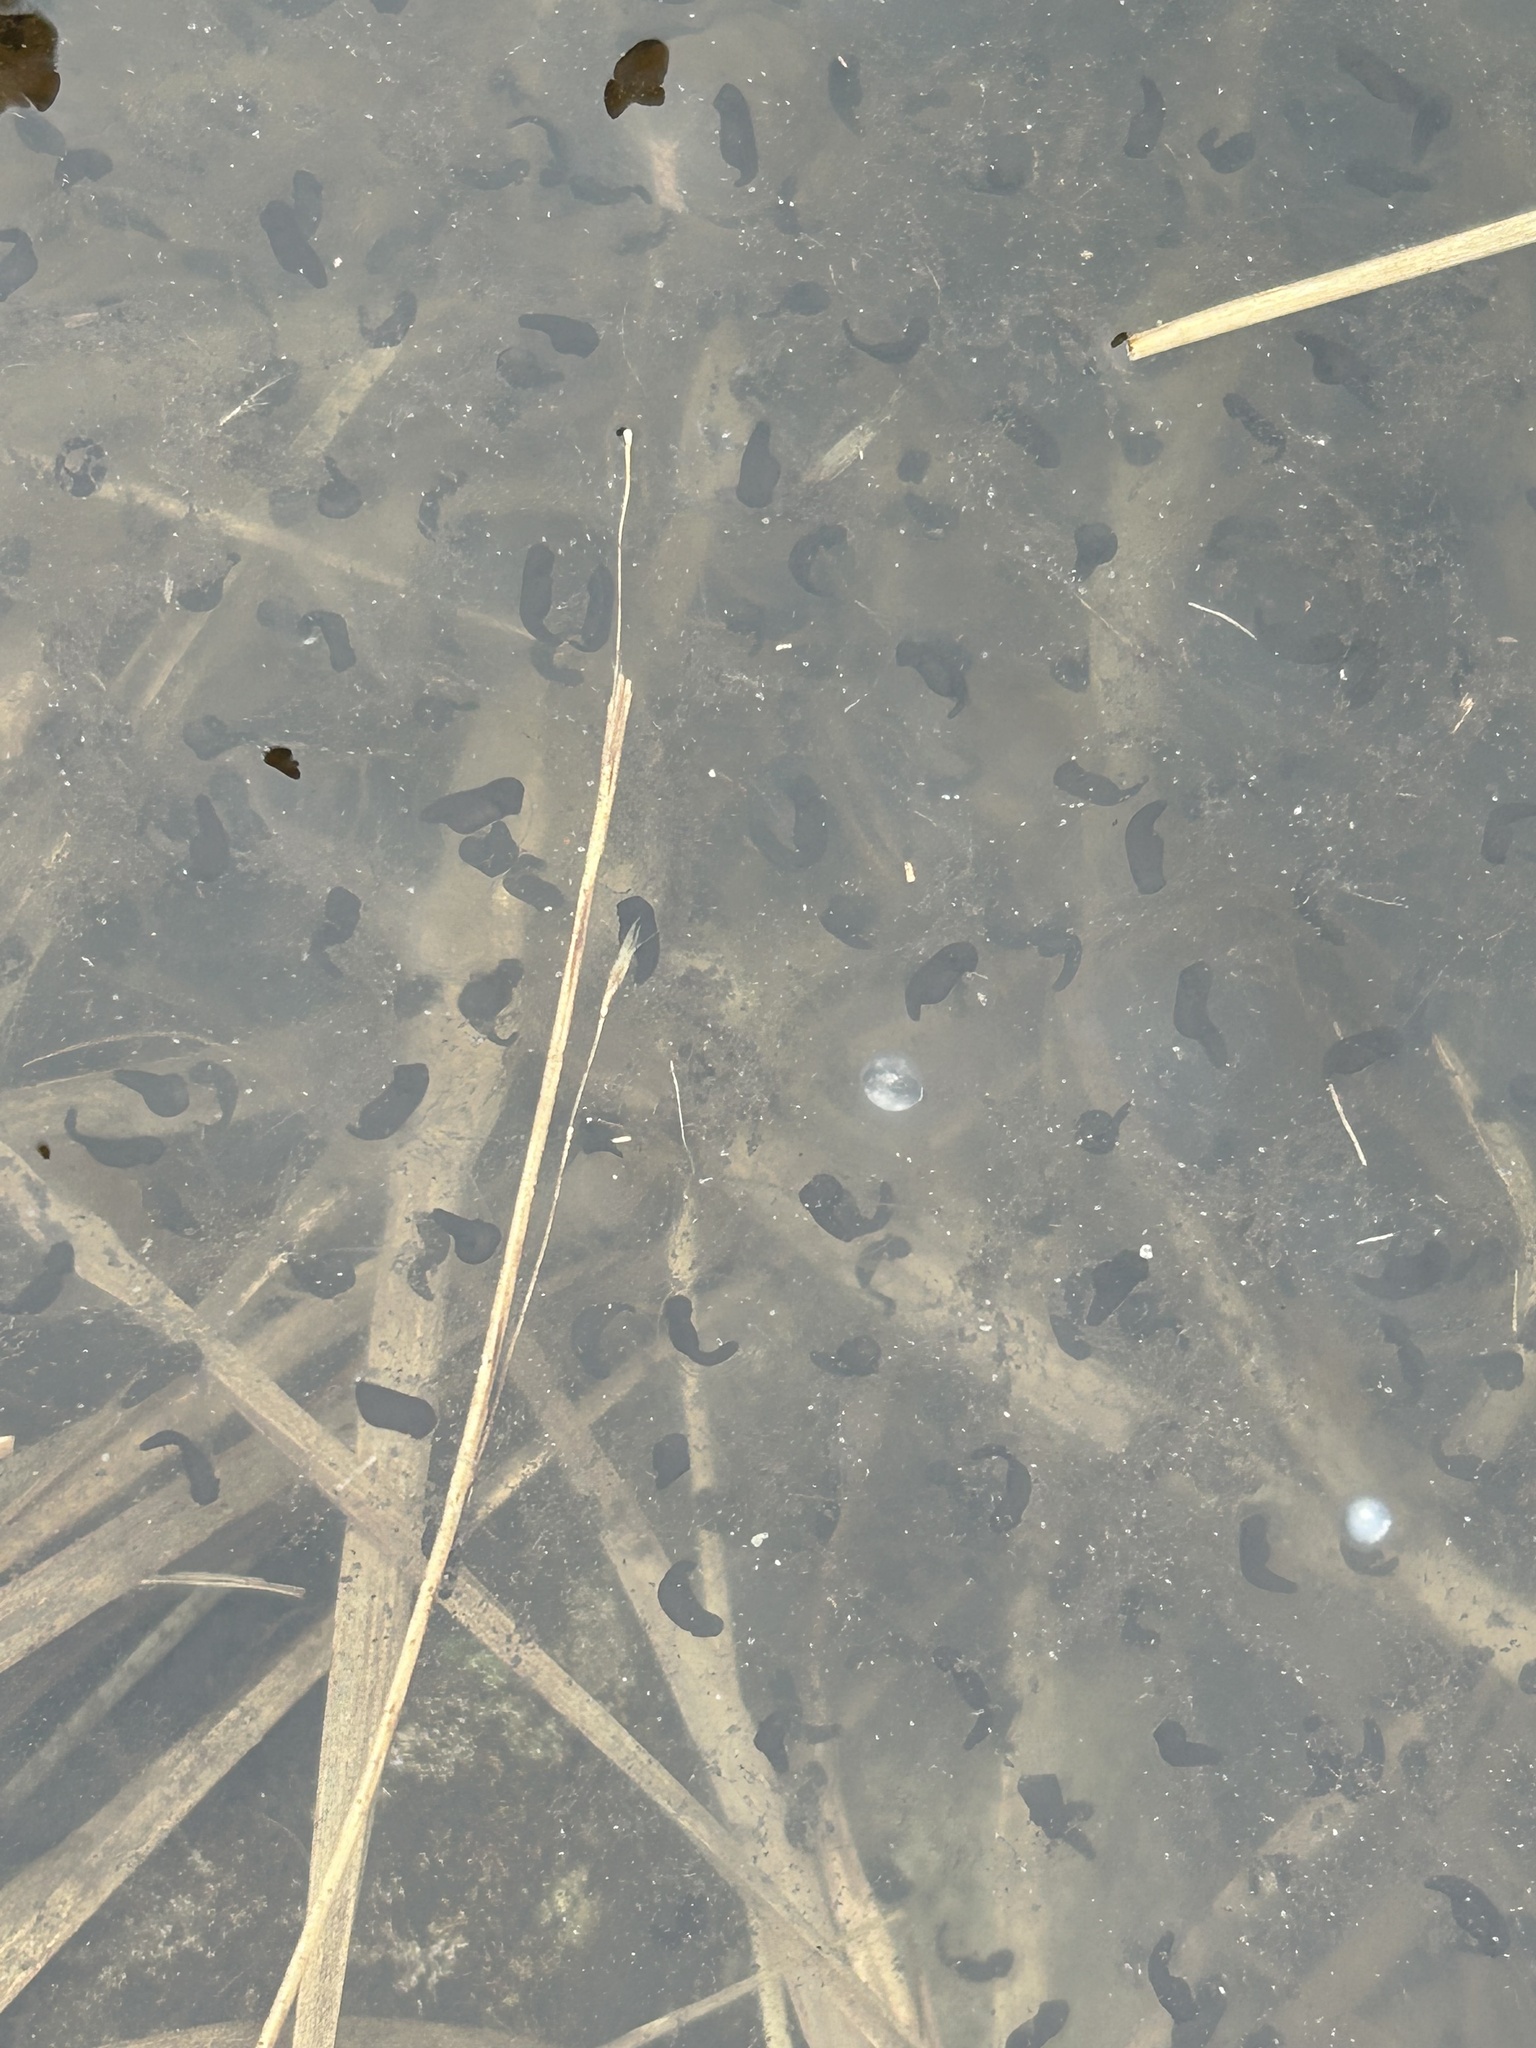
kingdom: Animalia
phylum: Chordata
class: Amphibia
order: Anura
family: Ranidae
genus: Rana
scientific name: Rana temporaria
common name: Common frog
